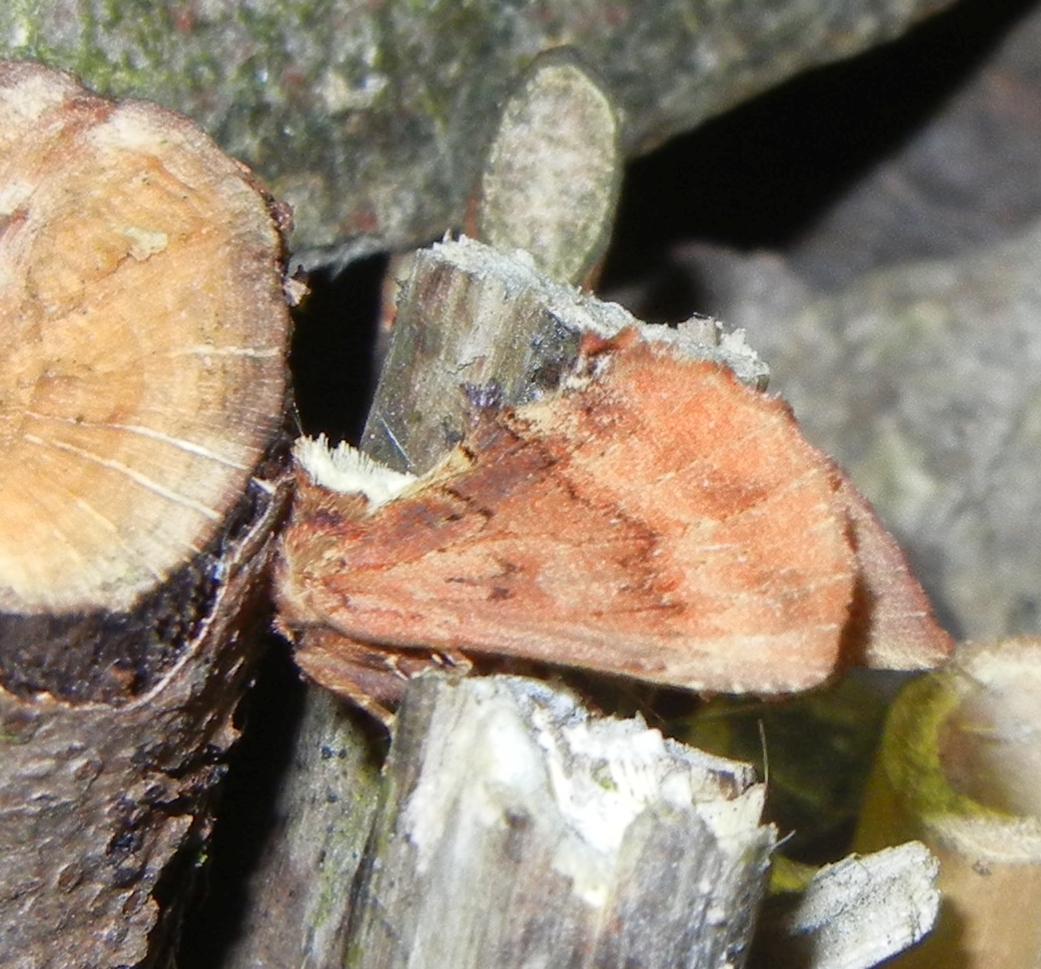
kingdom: Animalia
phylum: Arthropoda
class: Insecta
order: Lepidoptera
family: Notodontidae
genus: Ptilodon
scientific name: Ptilodon capucina
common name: Coxcomb prominent
